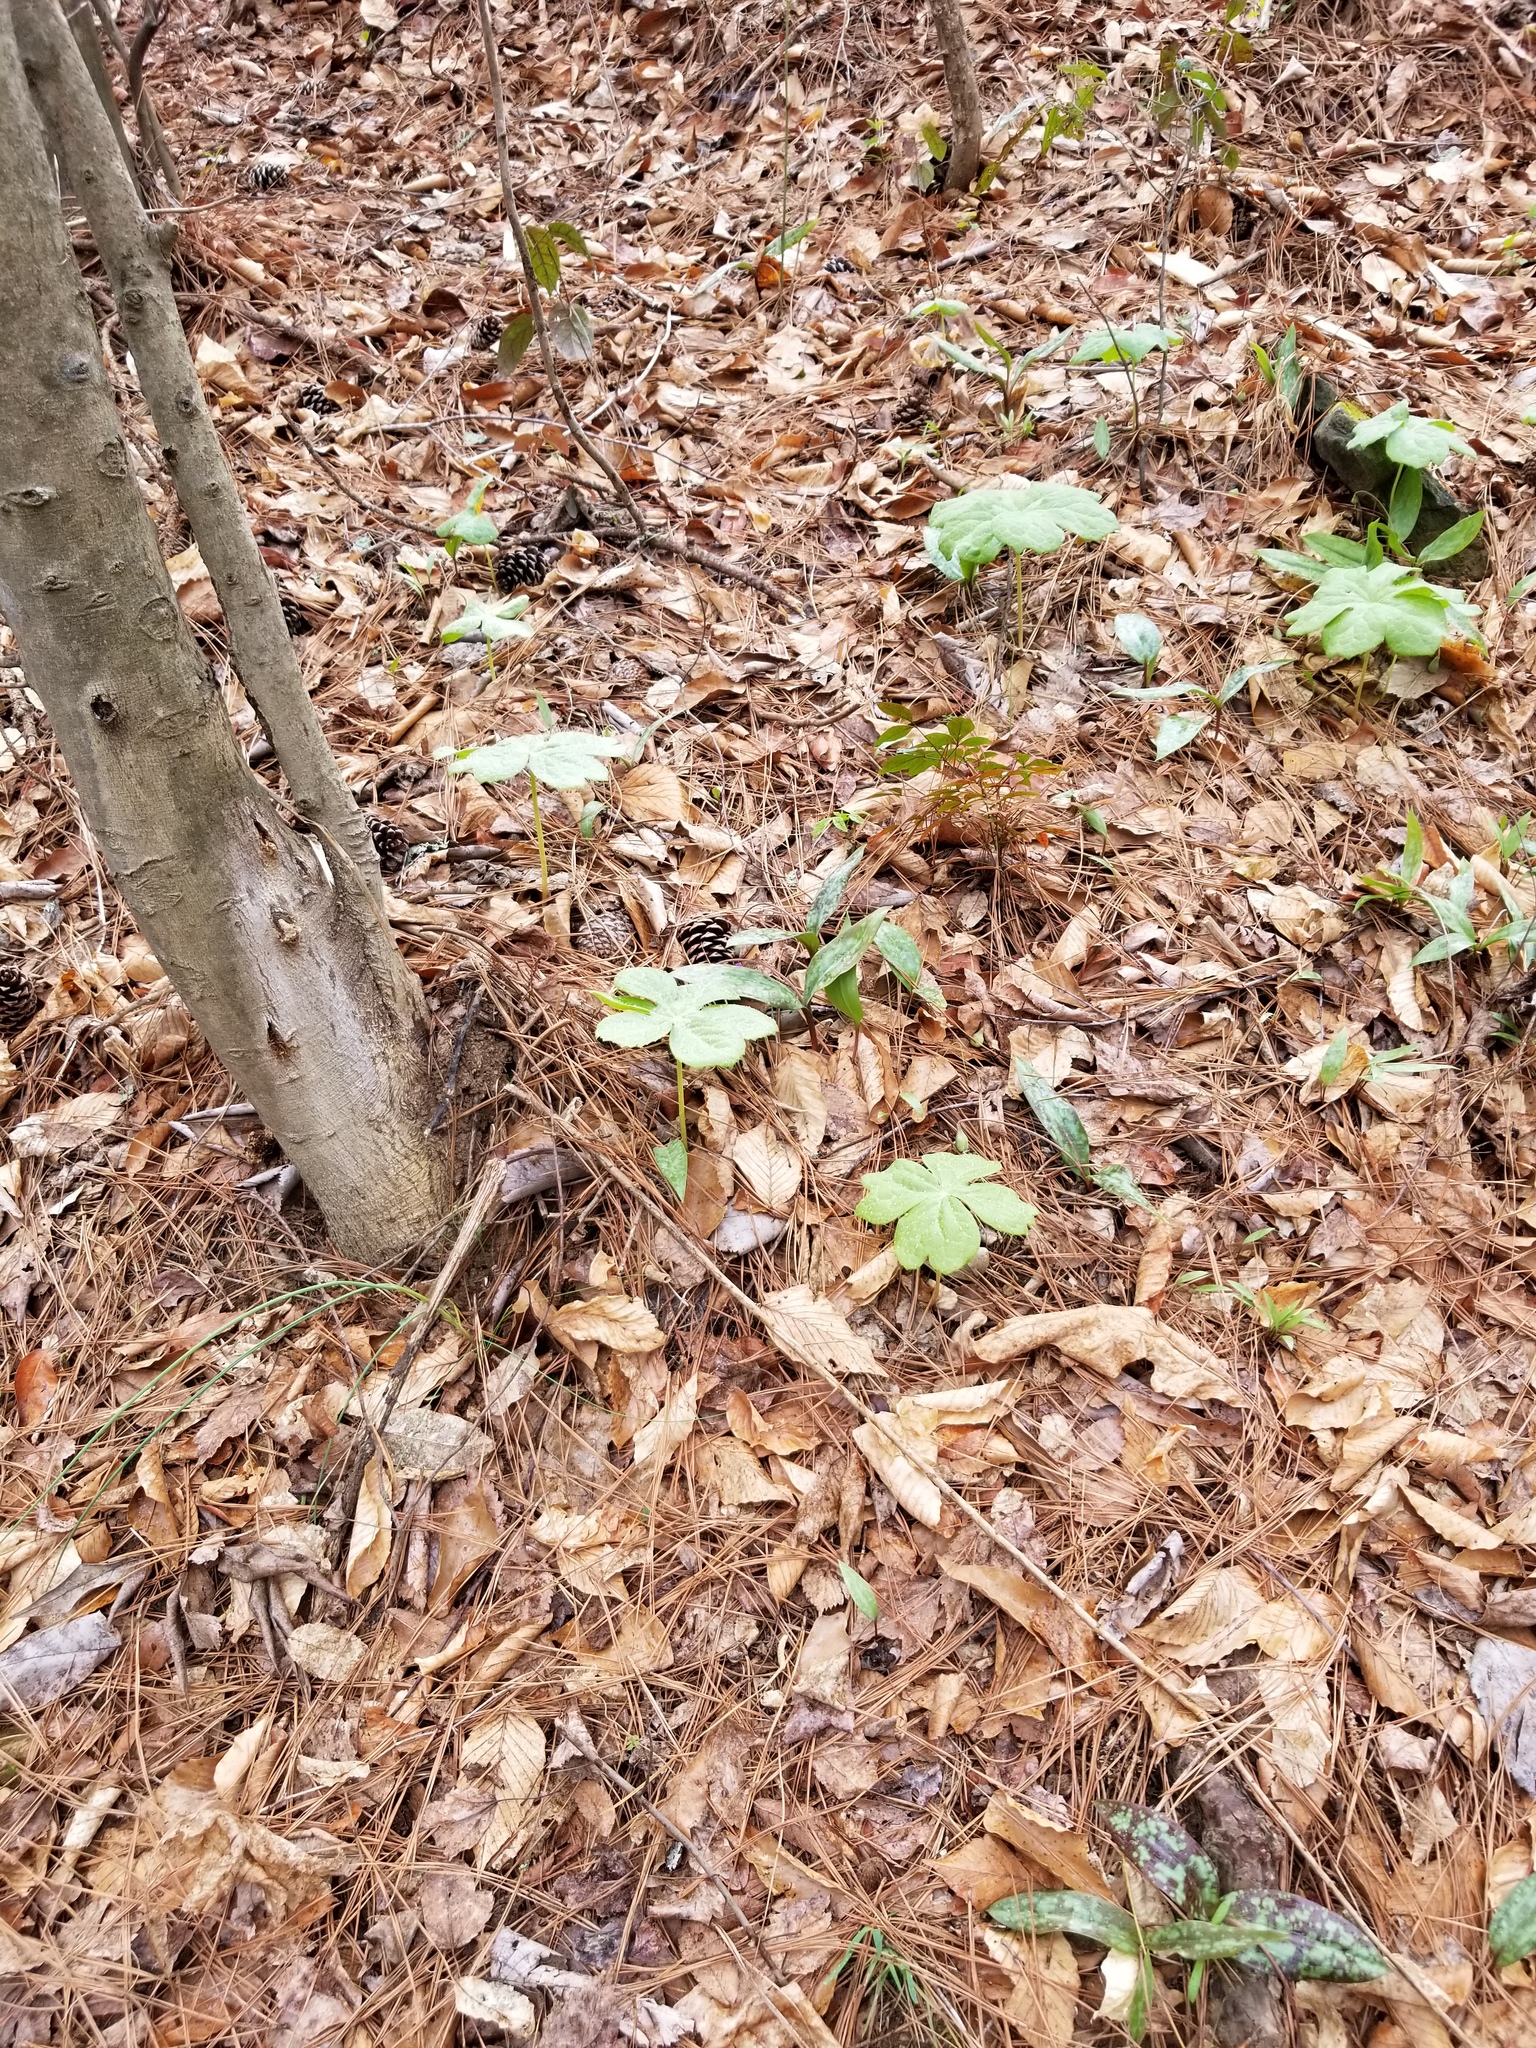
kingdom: Plantae
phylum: Tracheophyta
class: Magnoliopsida
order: Ranunculales
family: Berberidaceae
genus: Podophyllum
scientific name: Podophyllum peltatum
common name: Wild mandrake
